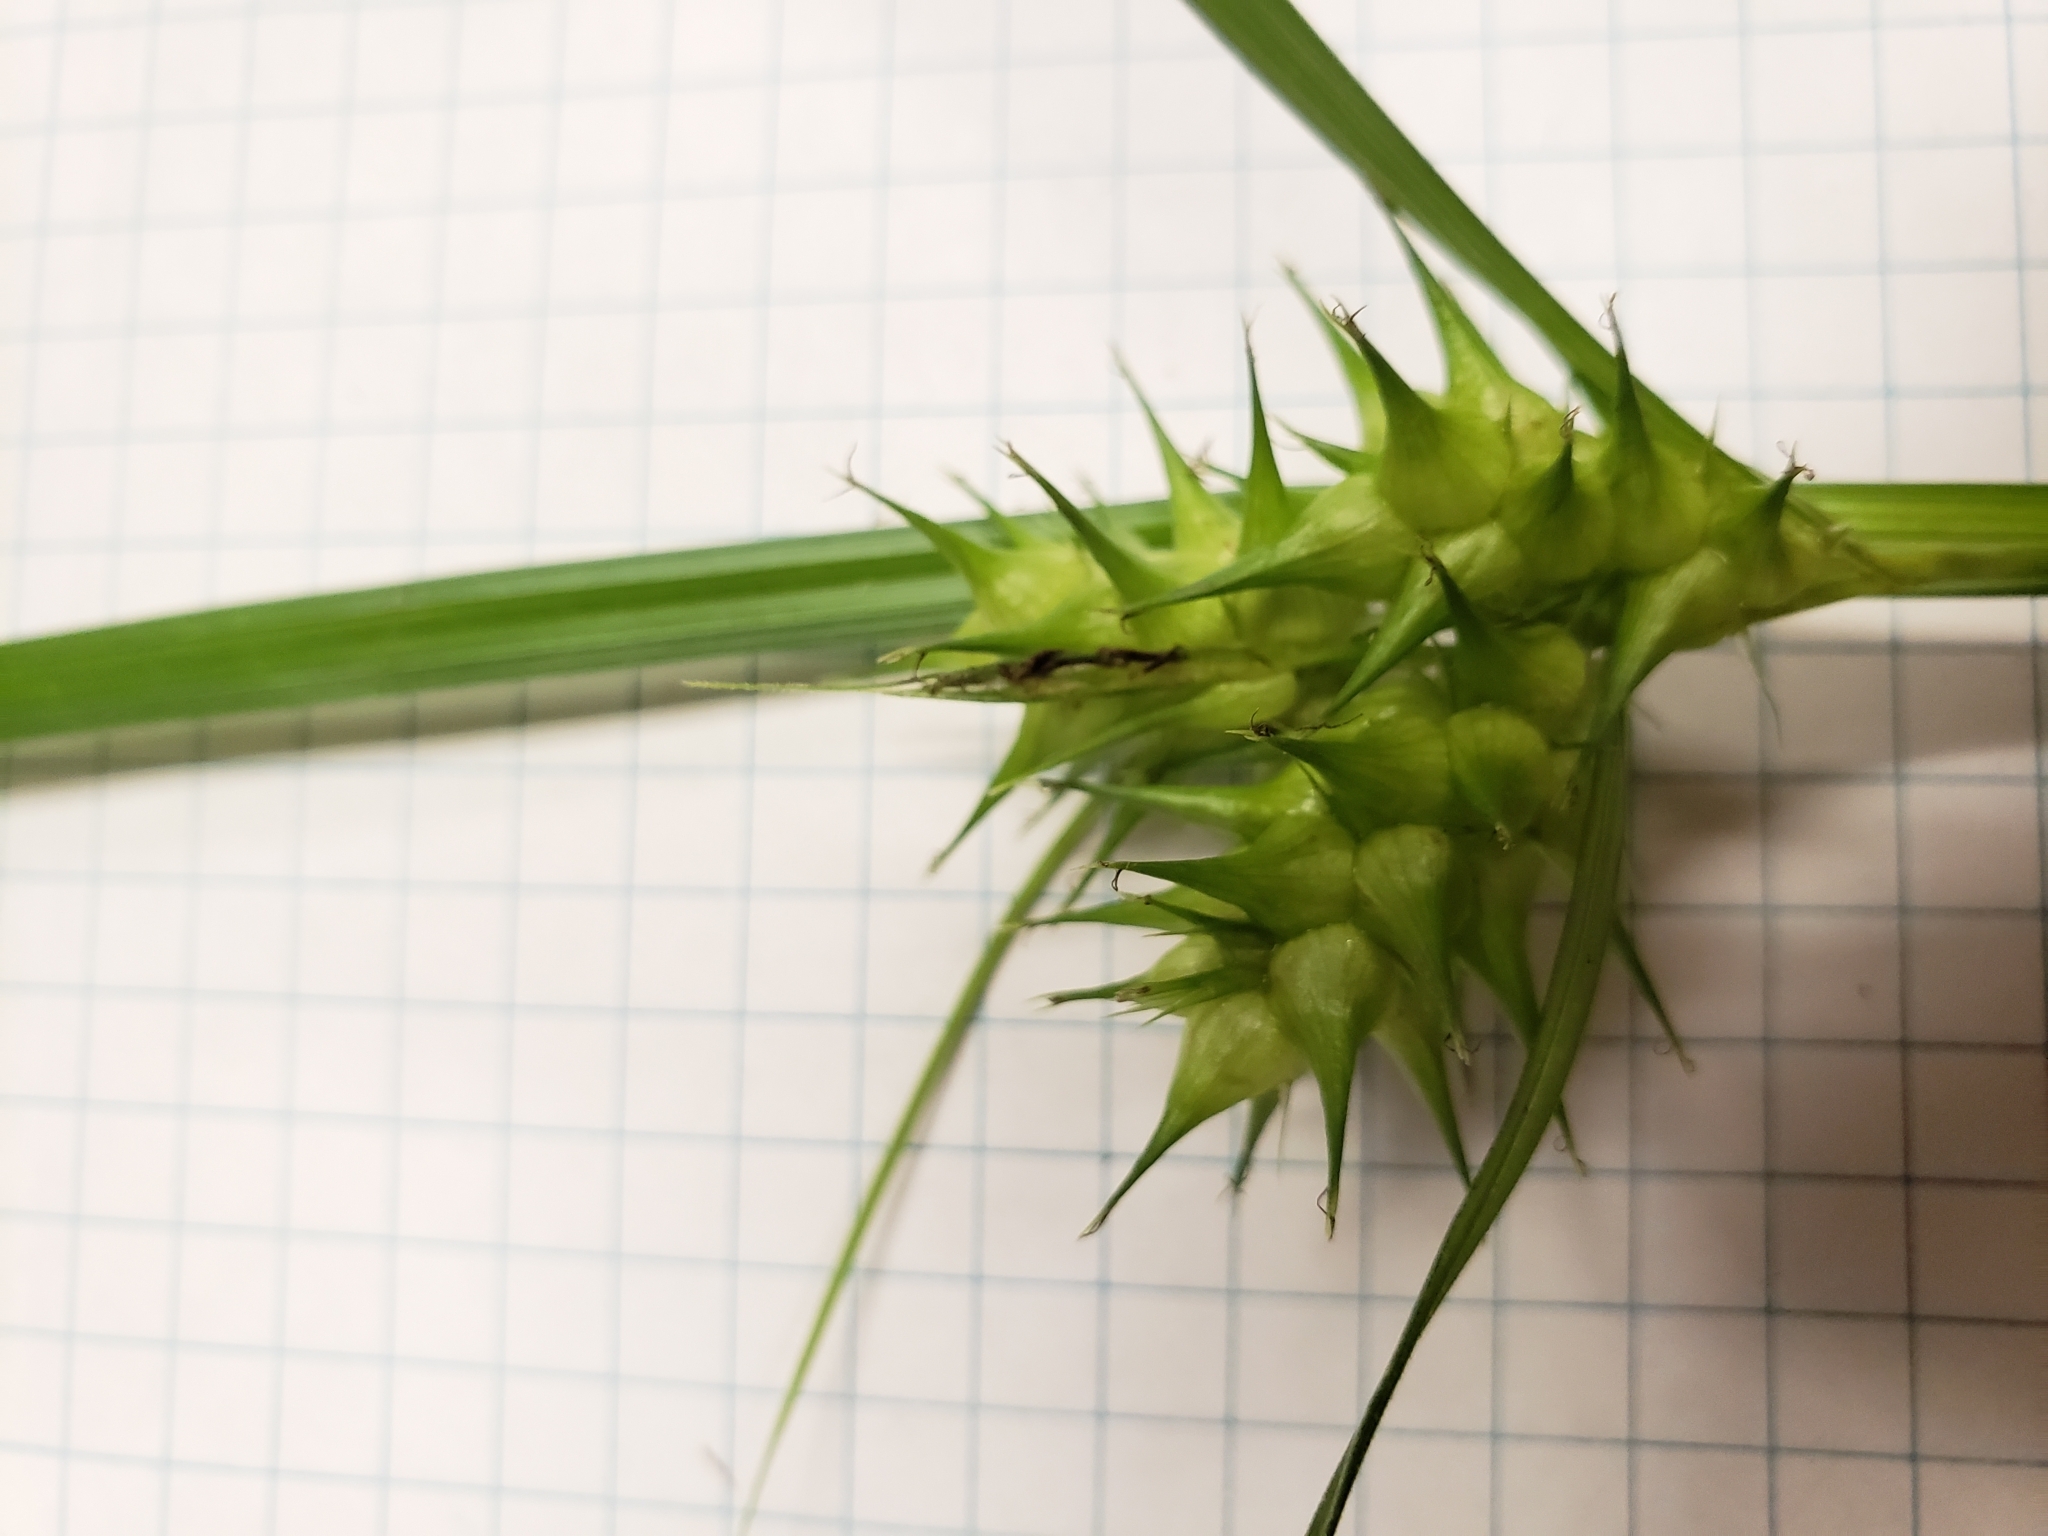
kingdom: Plantae
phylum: Tracheophyta
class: Liliopsida
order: Poales
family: Cyperaceae
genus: Carex
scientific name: Carex lupulina
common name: Hop sedge
